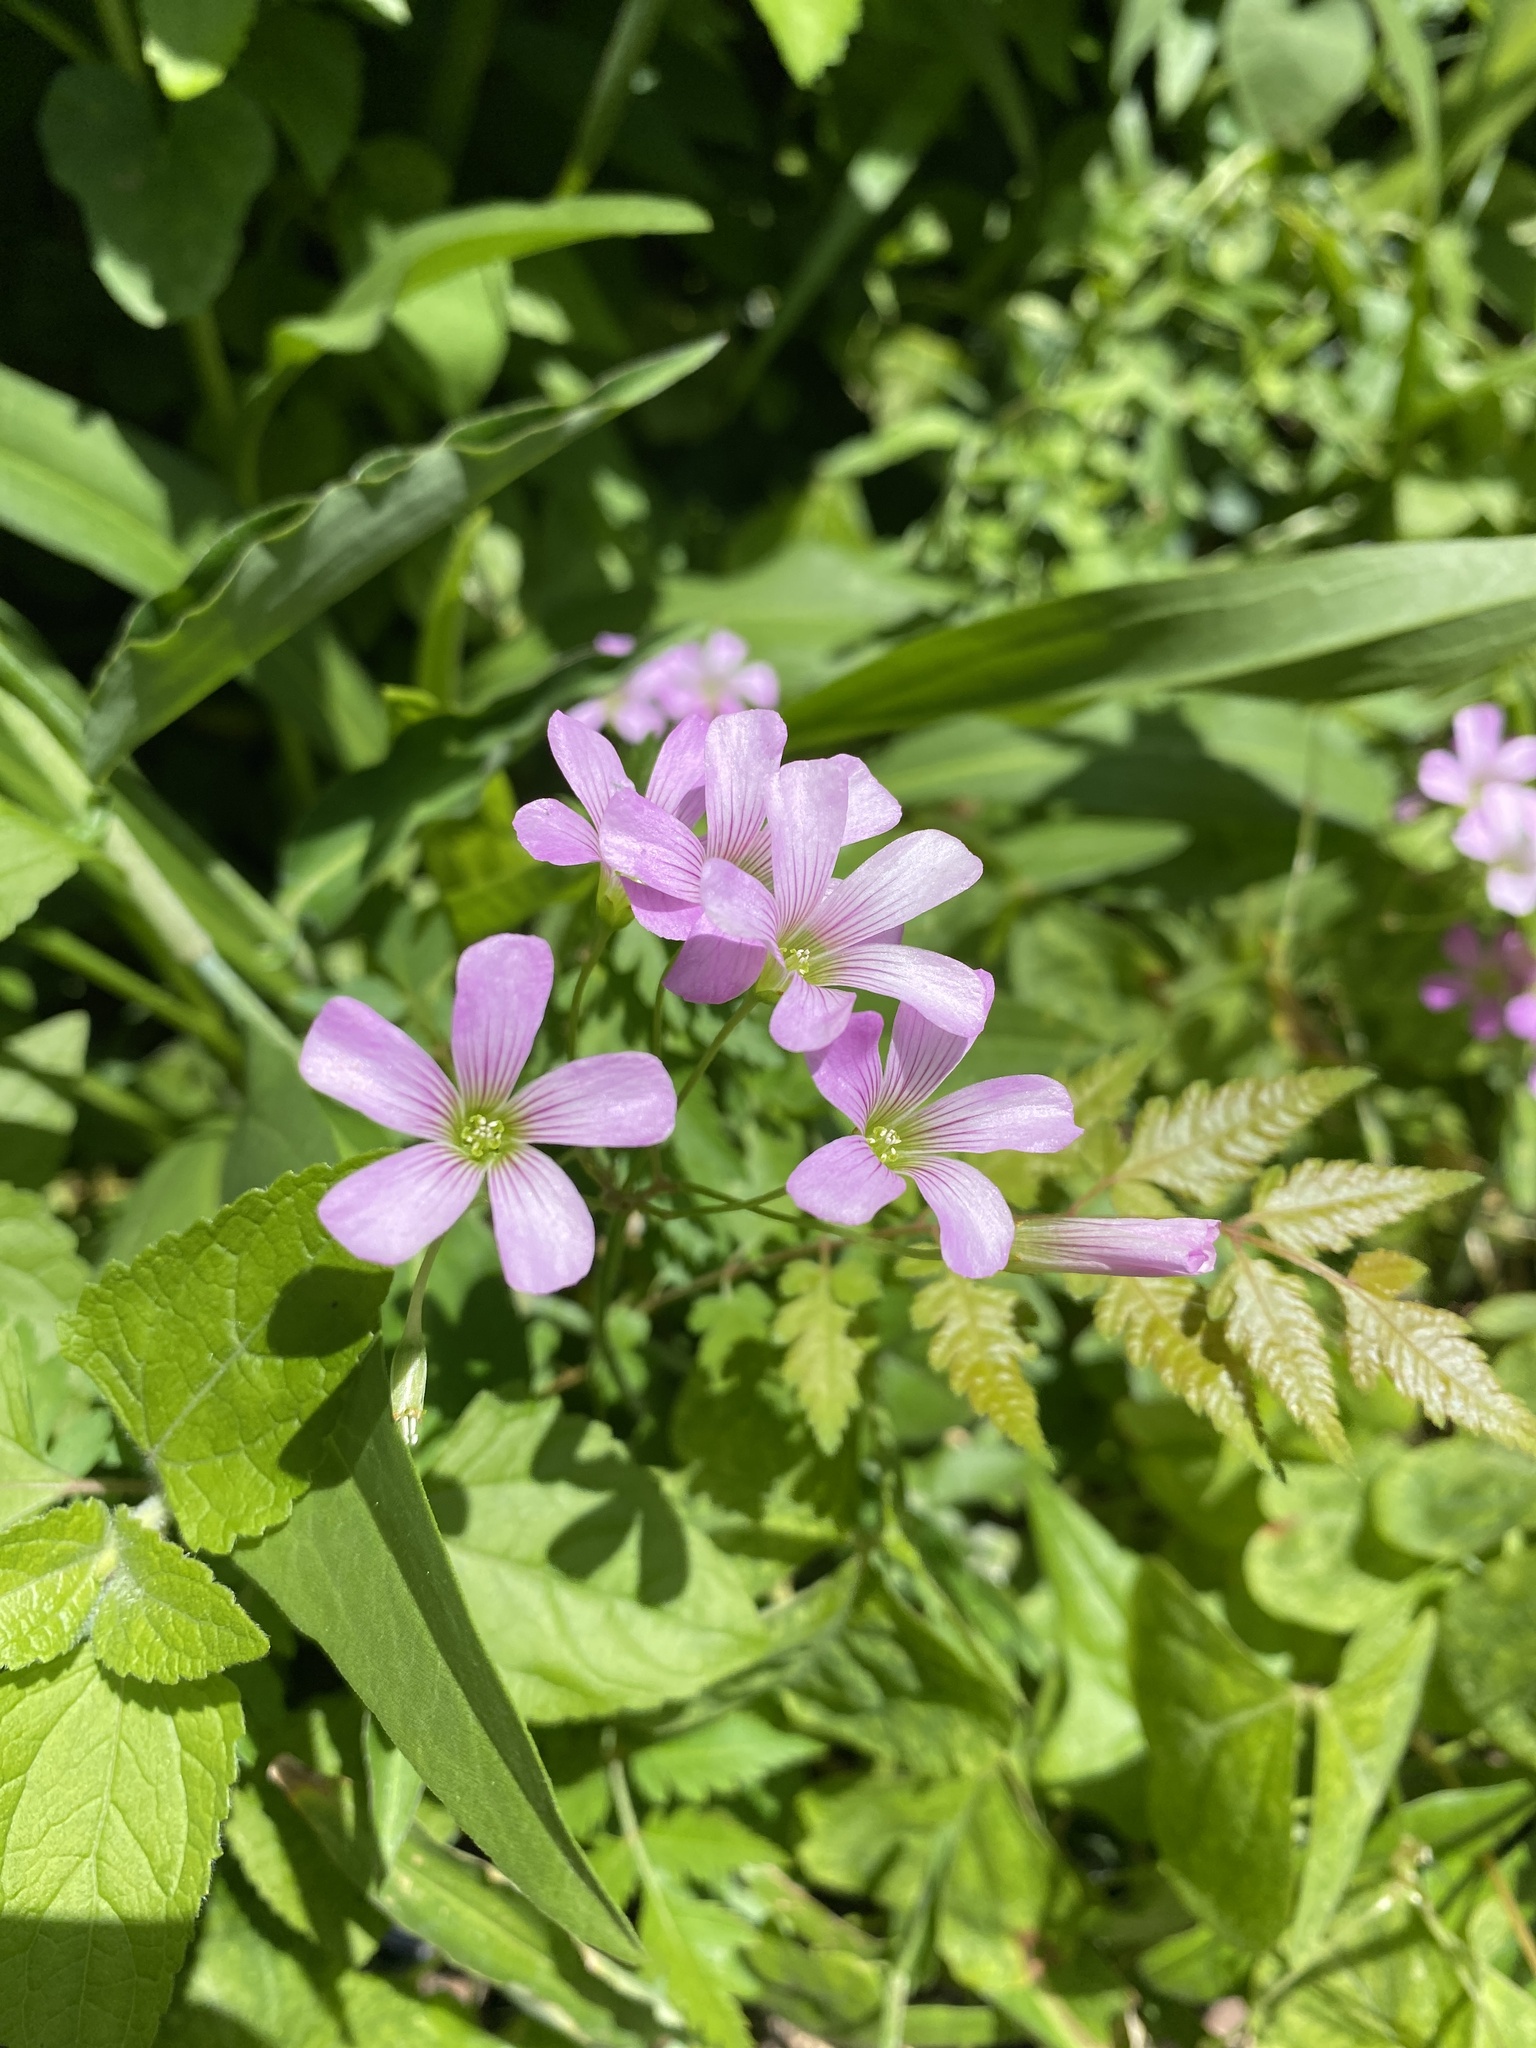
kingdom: Plantae
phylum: Tracheophyta
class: Magnoliopsida
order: Oxalidales
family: Oxalidaceae
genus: Oxalis
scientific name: Oxalis debilis
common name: Large-flowered pink-sorrel
